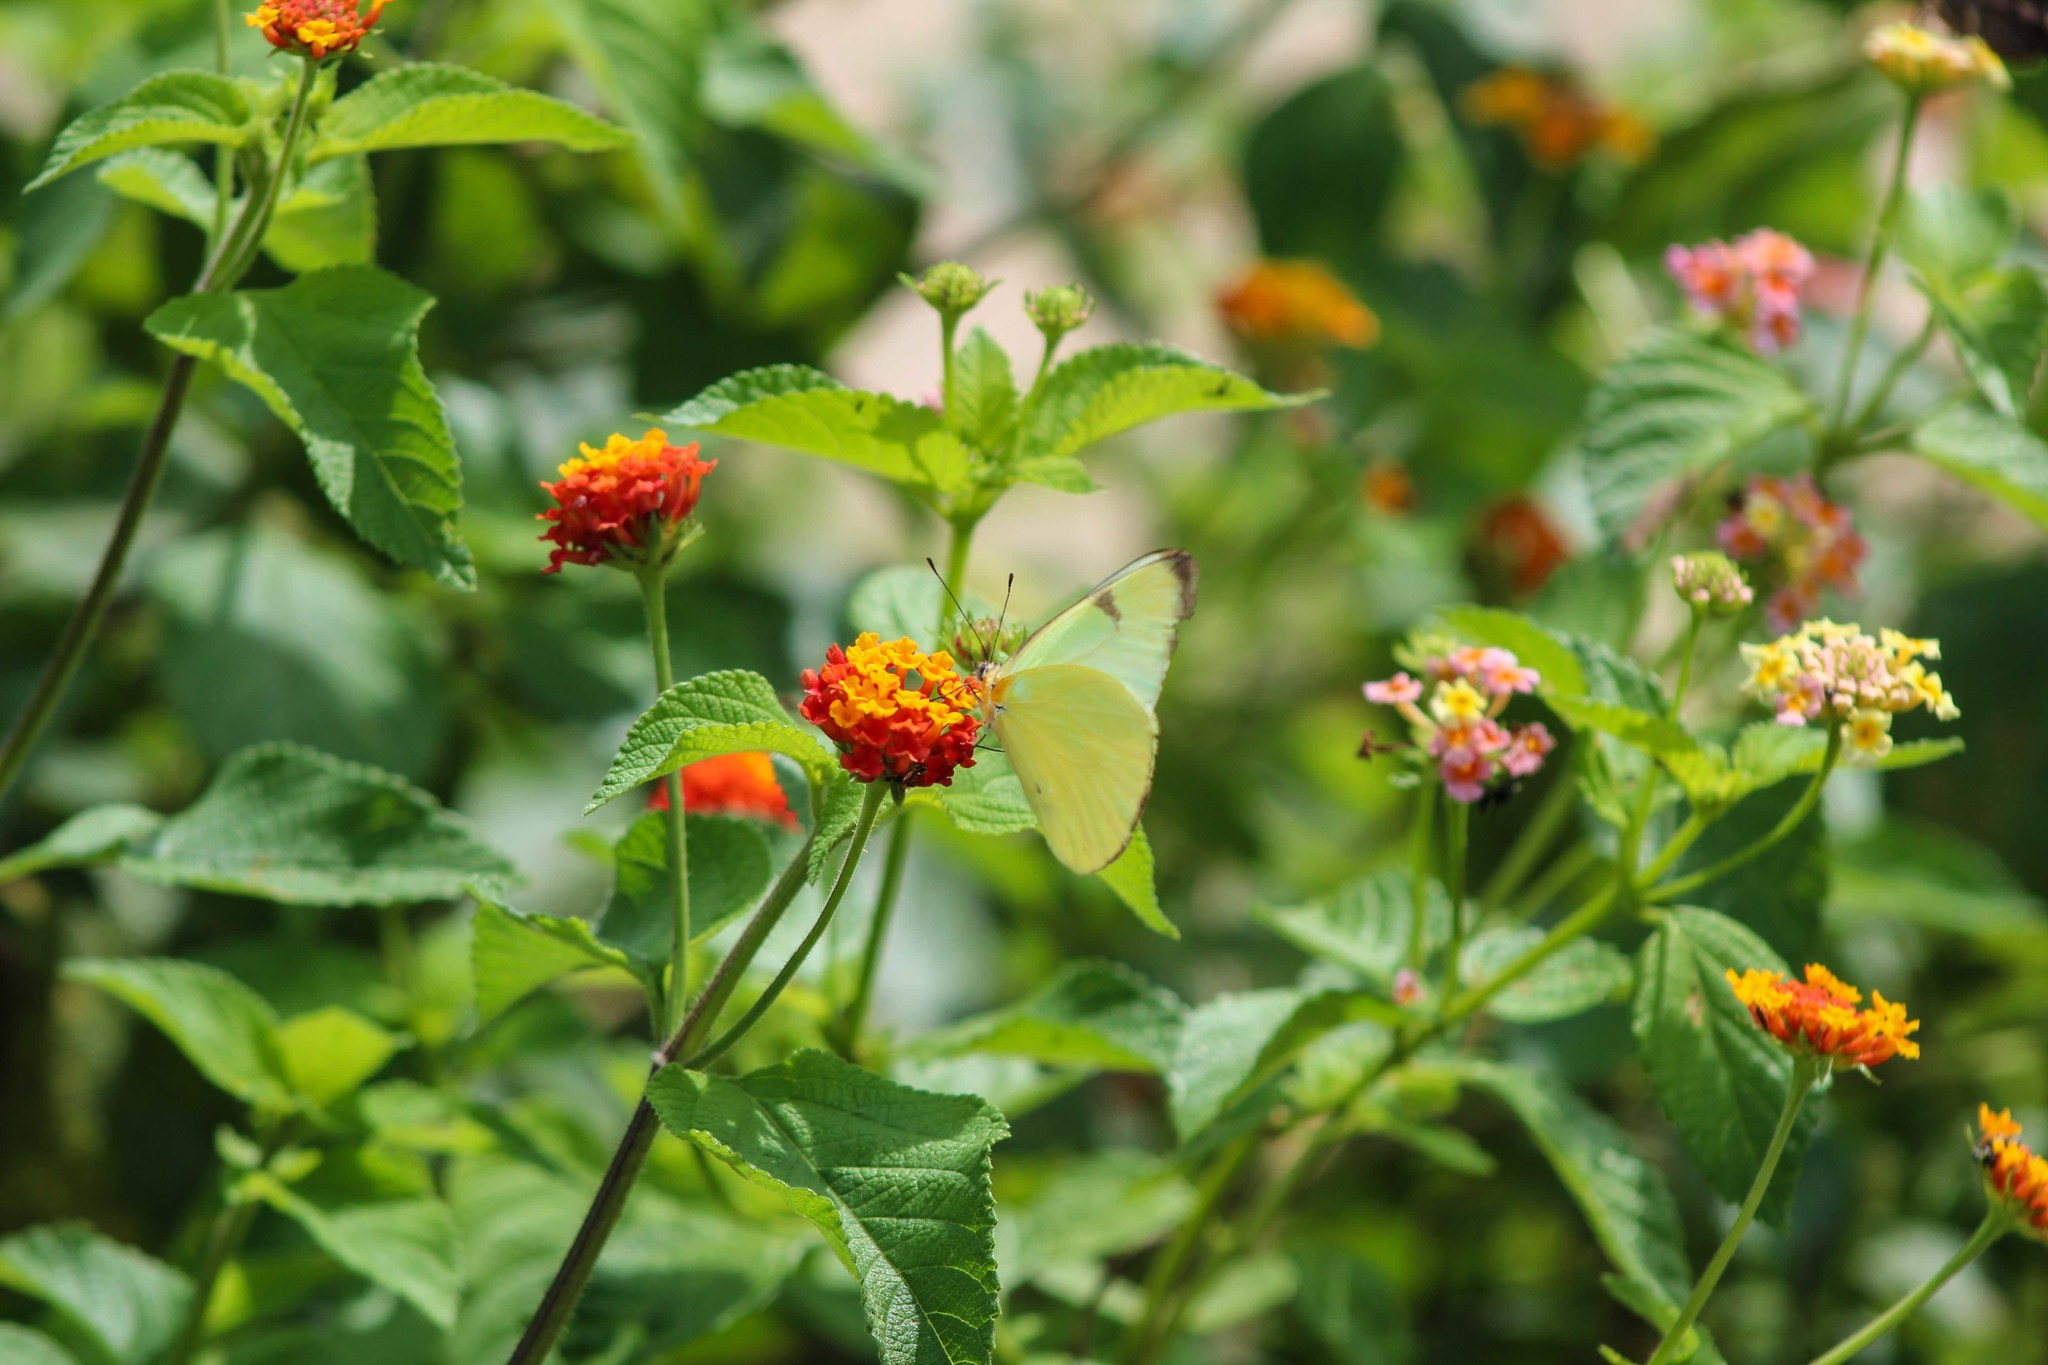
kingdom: Animalia
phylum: Arthropoda
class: Insecta
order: Lepidoptera
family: Pieridae
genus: Melete
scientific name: Melete polyhymnia
